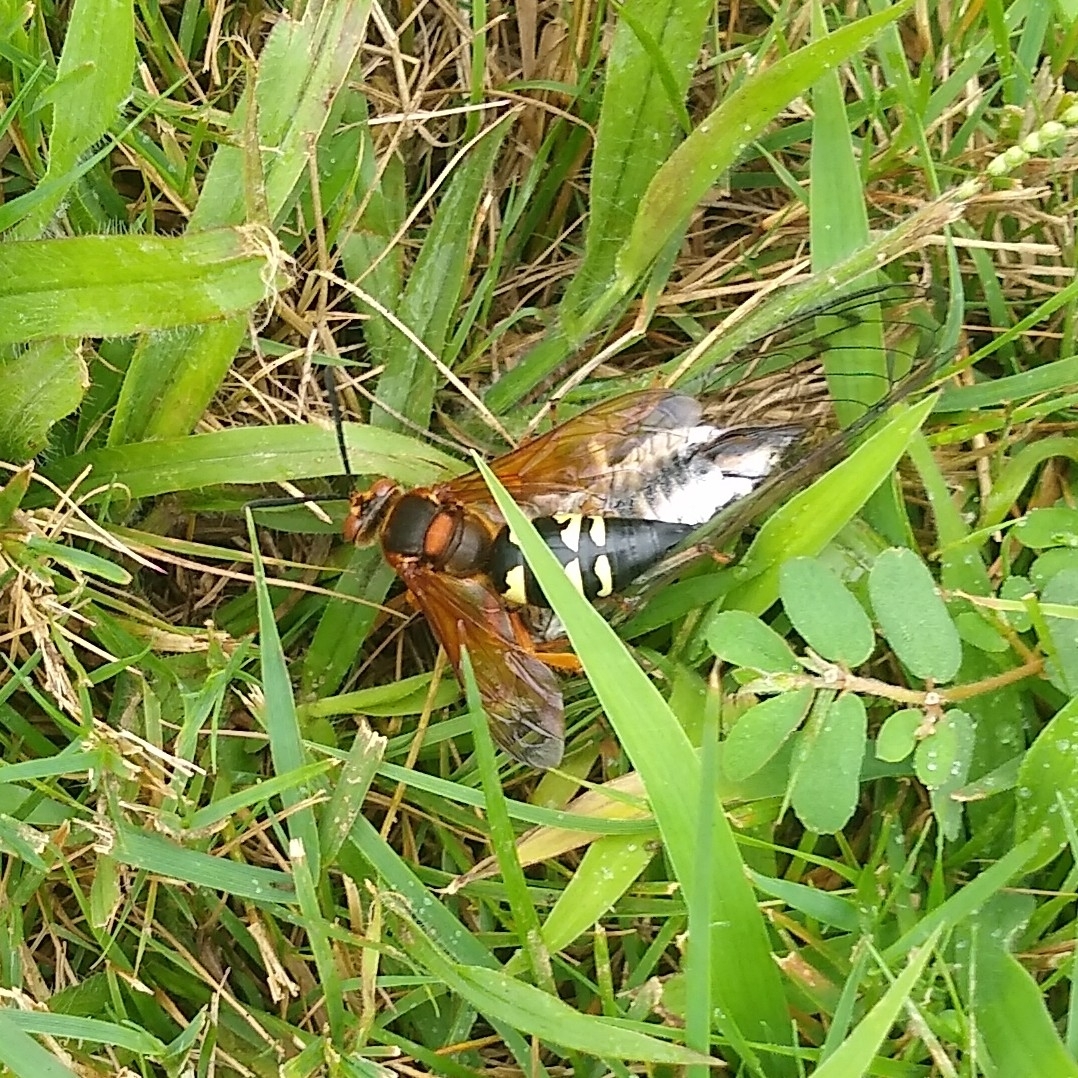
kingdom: Animalia
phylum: Arthropoda
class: Insecta
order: Hymenoptera
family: Crabronidae
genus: Sphecius
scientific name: Sphecius speciosus
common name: Cicada killer
